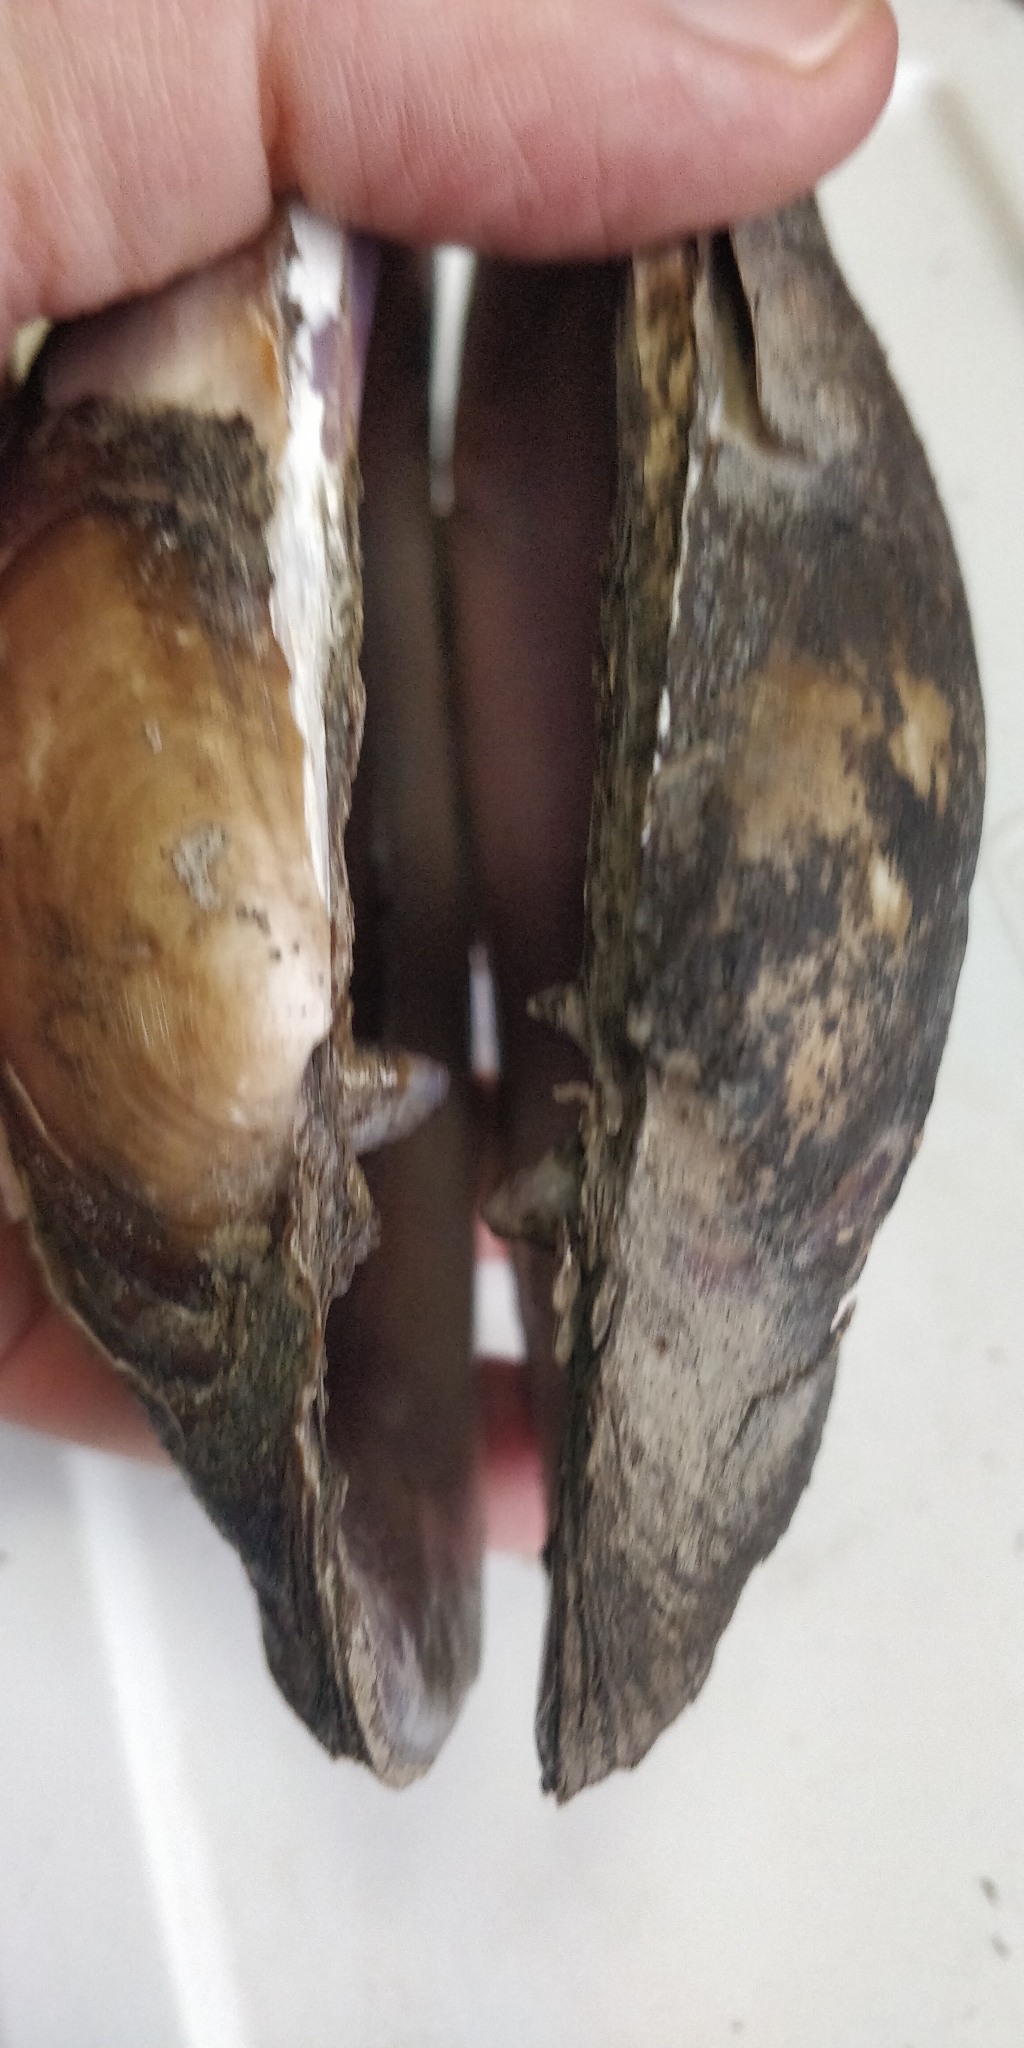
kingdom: Animalia
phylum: Mollusca
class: Bivalvia
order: Unionida
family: Unionidae
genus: Potamilus
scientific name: Potamilus alatus
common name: Pink heelsplitter
